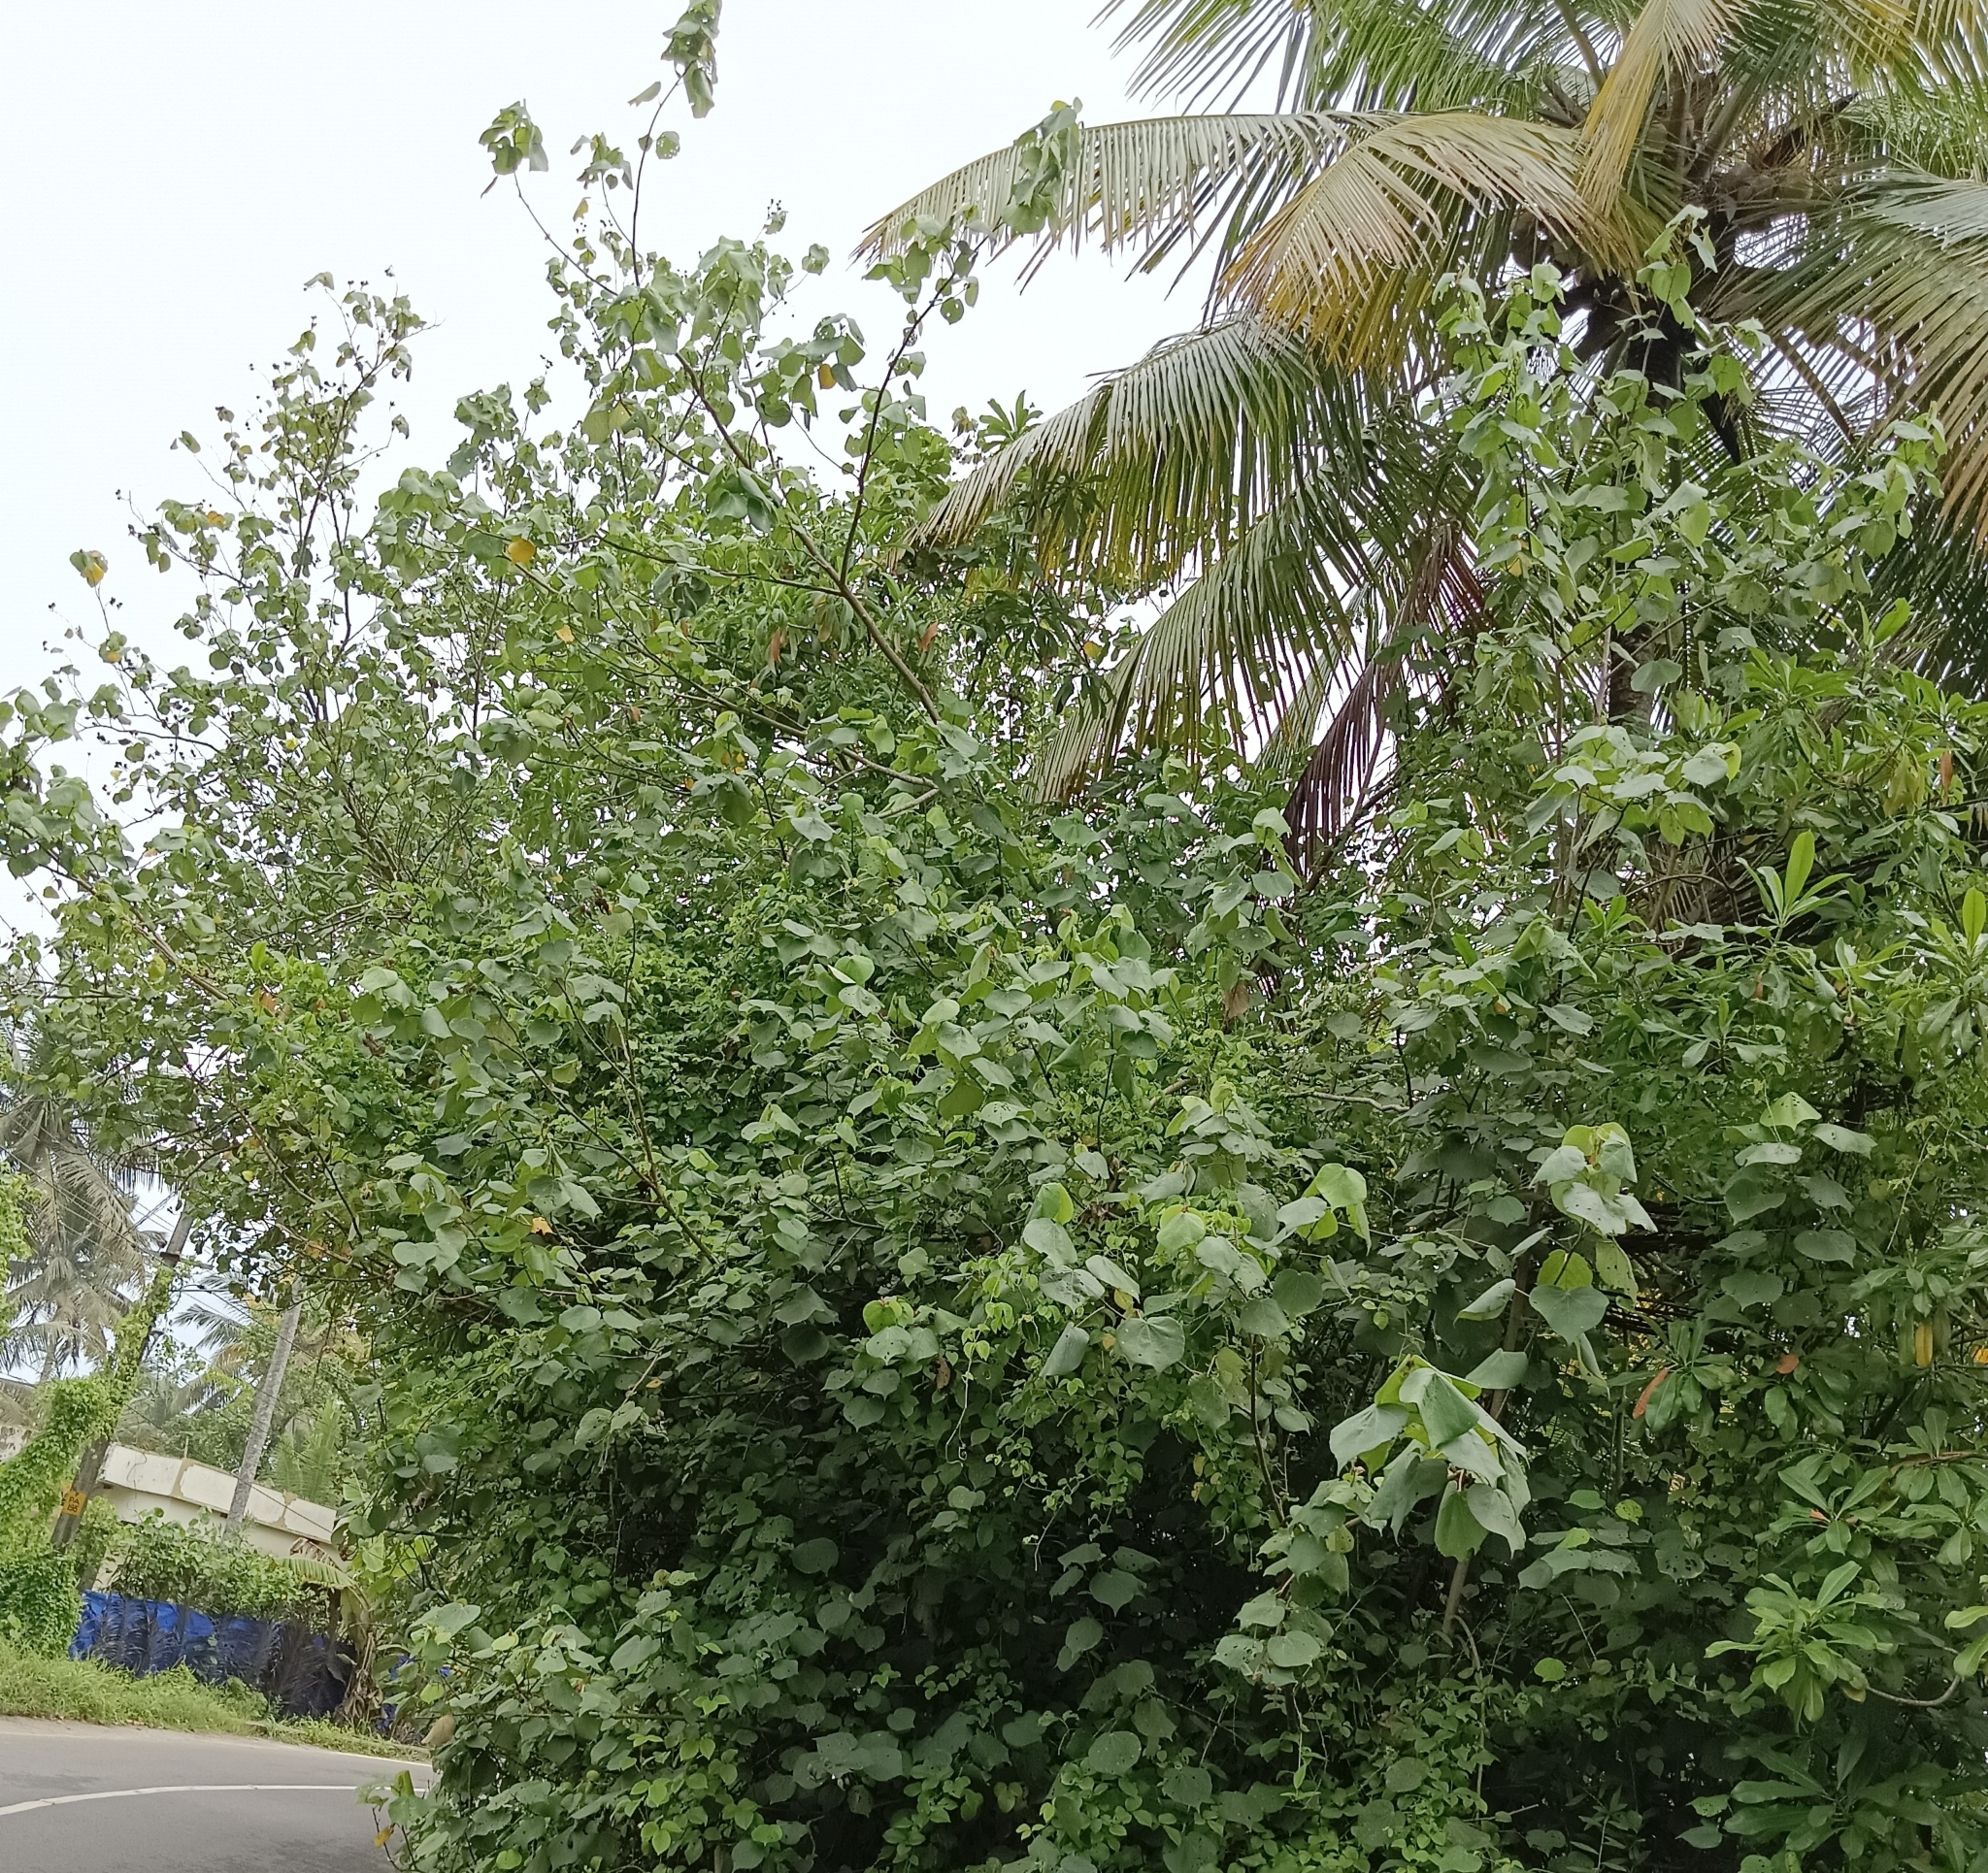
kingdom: Plantae
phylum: Tracheophyta
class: Magnoliopsida
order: Malvales
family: Malvaceae
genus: Talipariti
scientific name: Talipariti tiliaceum
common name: Sea hibiscus
